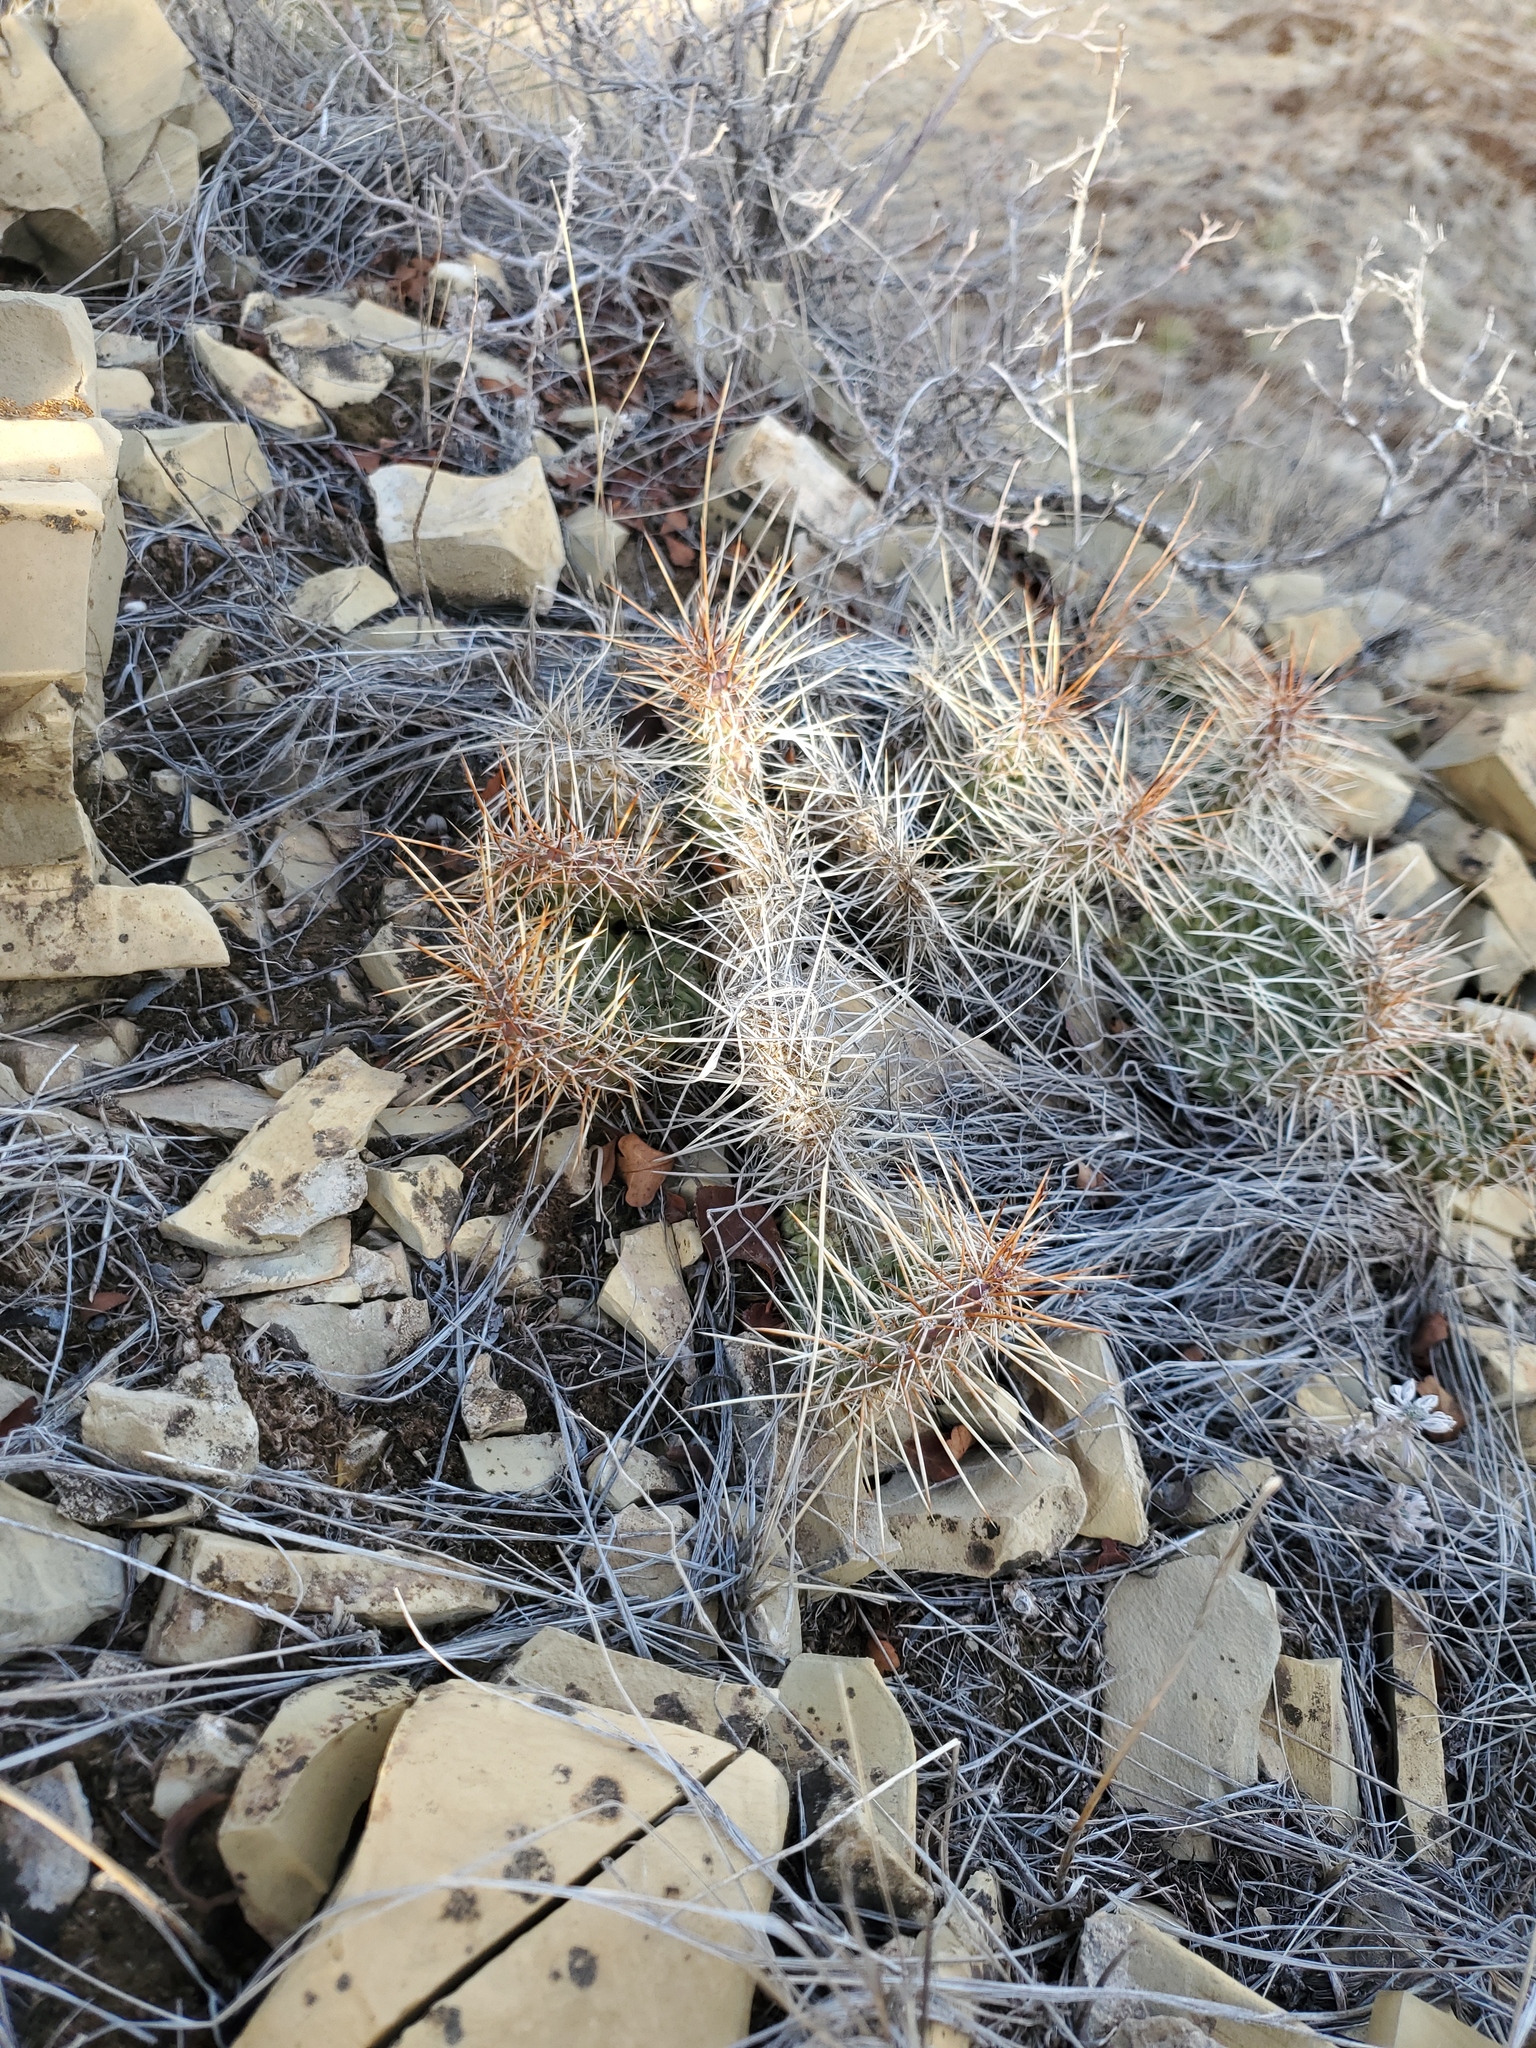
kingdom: Plantae
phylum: Tracheophyta
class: Magnoliopsida
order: Caryophyllales
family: Cactaceae
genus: Opuntia
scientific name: Opuntia polyacantha
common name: Plains prickly-pear
